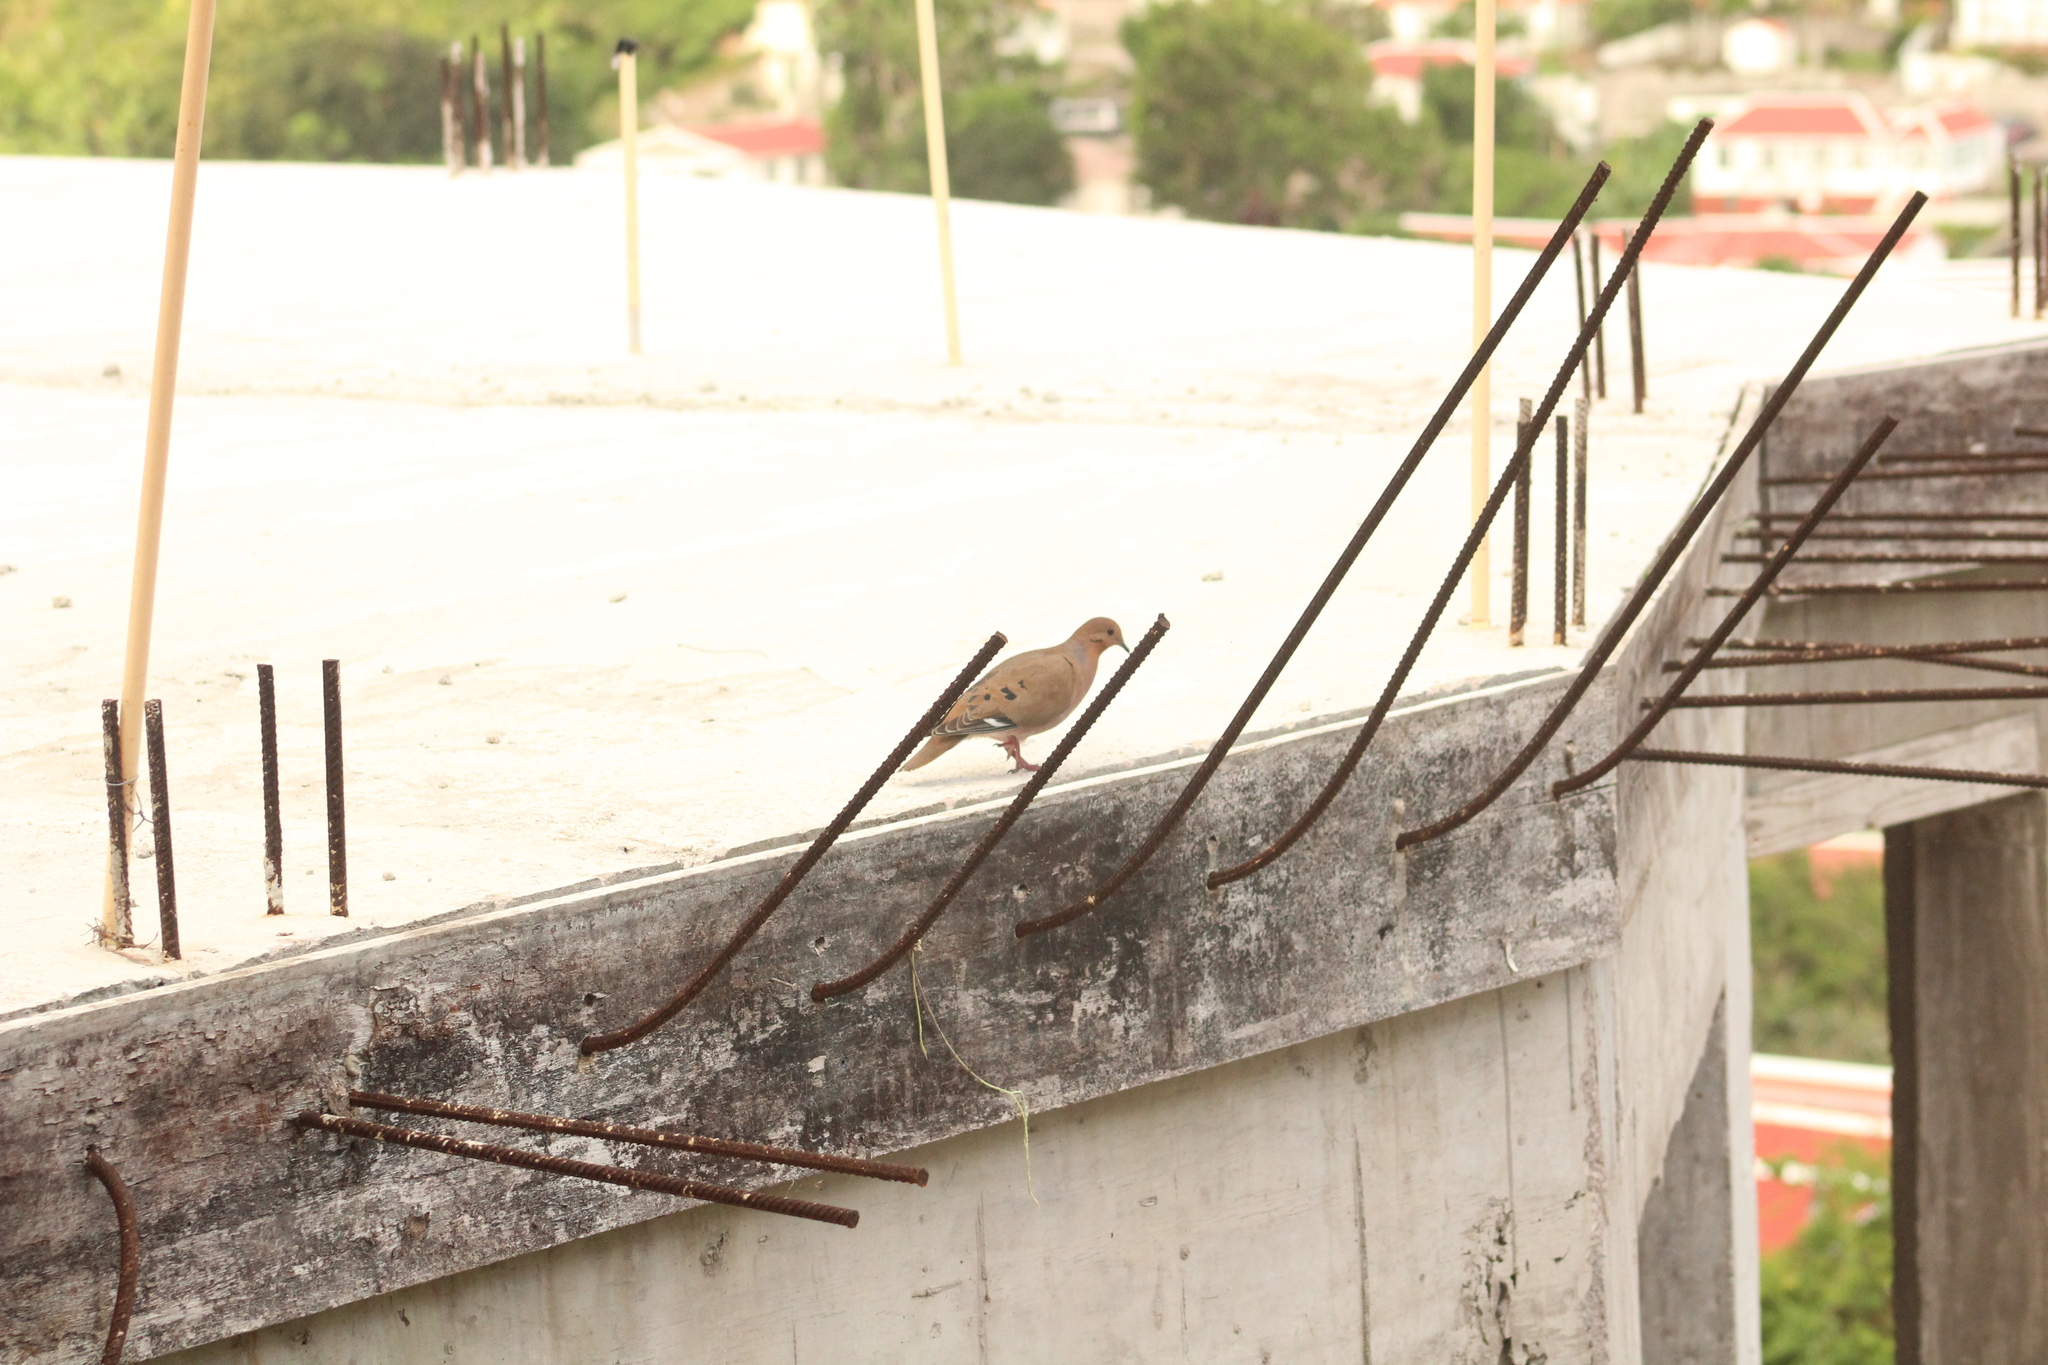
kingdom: Animalia
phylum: Chordata
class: Aves
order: Columbiformes
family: Columbidae
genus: Zenaida
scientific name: Zenaida aurita
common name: Zenaida dove
